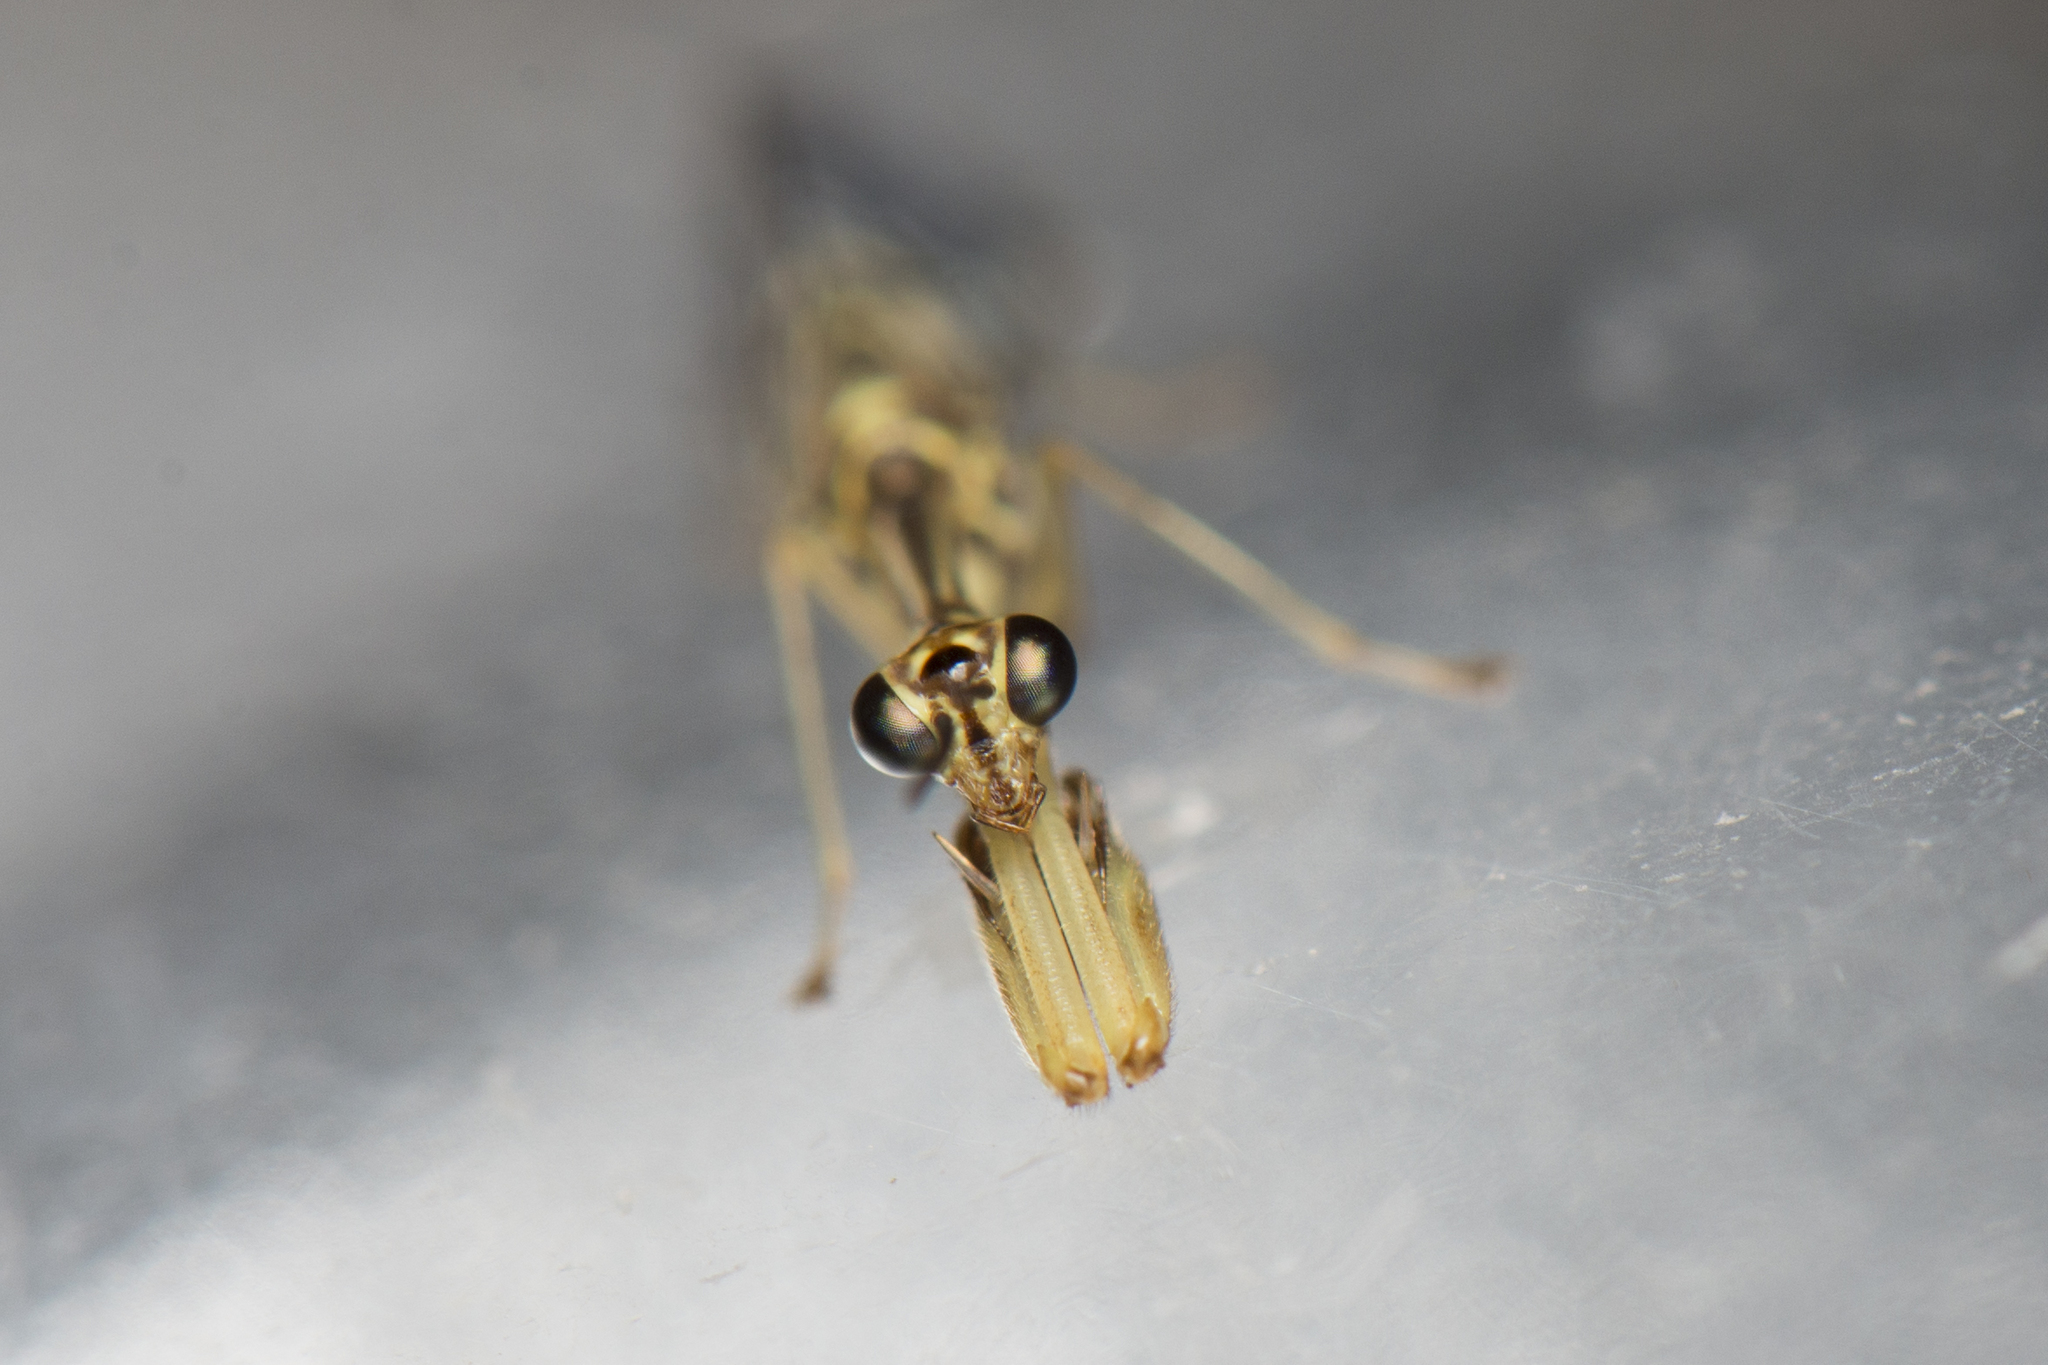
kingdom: Animalia
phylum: Arthropoda
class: Insecta
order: Neuroptera
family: Mantispidae
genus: Necyla
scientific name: Necyla formosana
